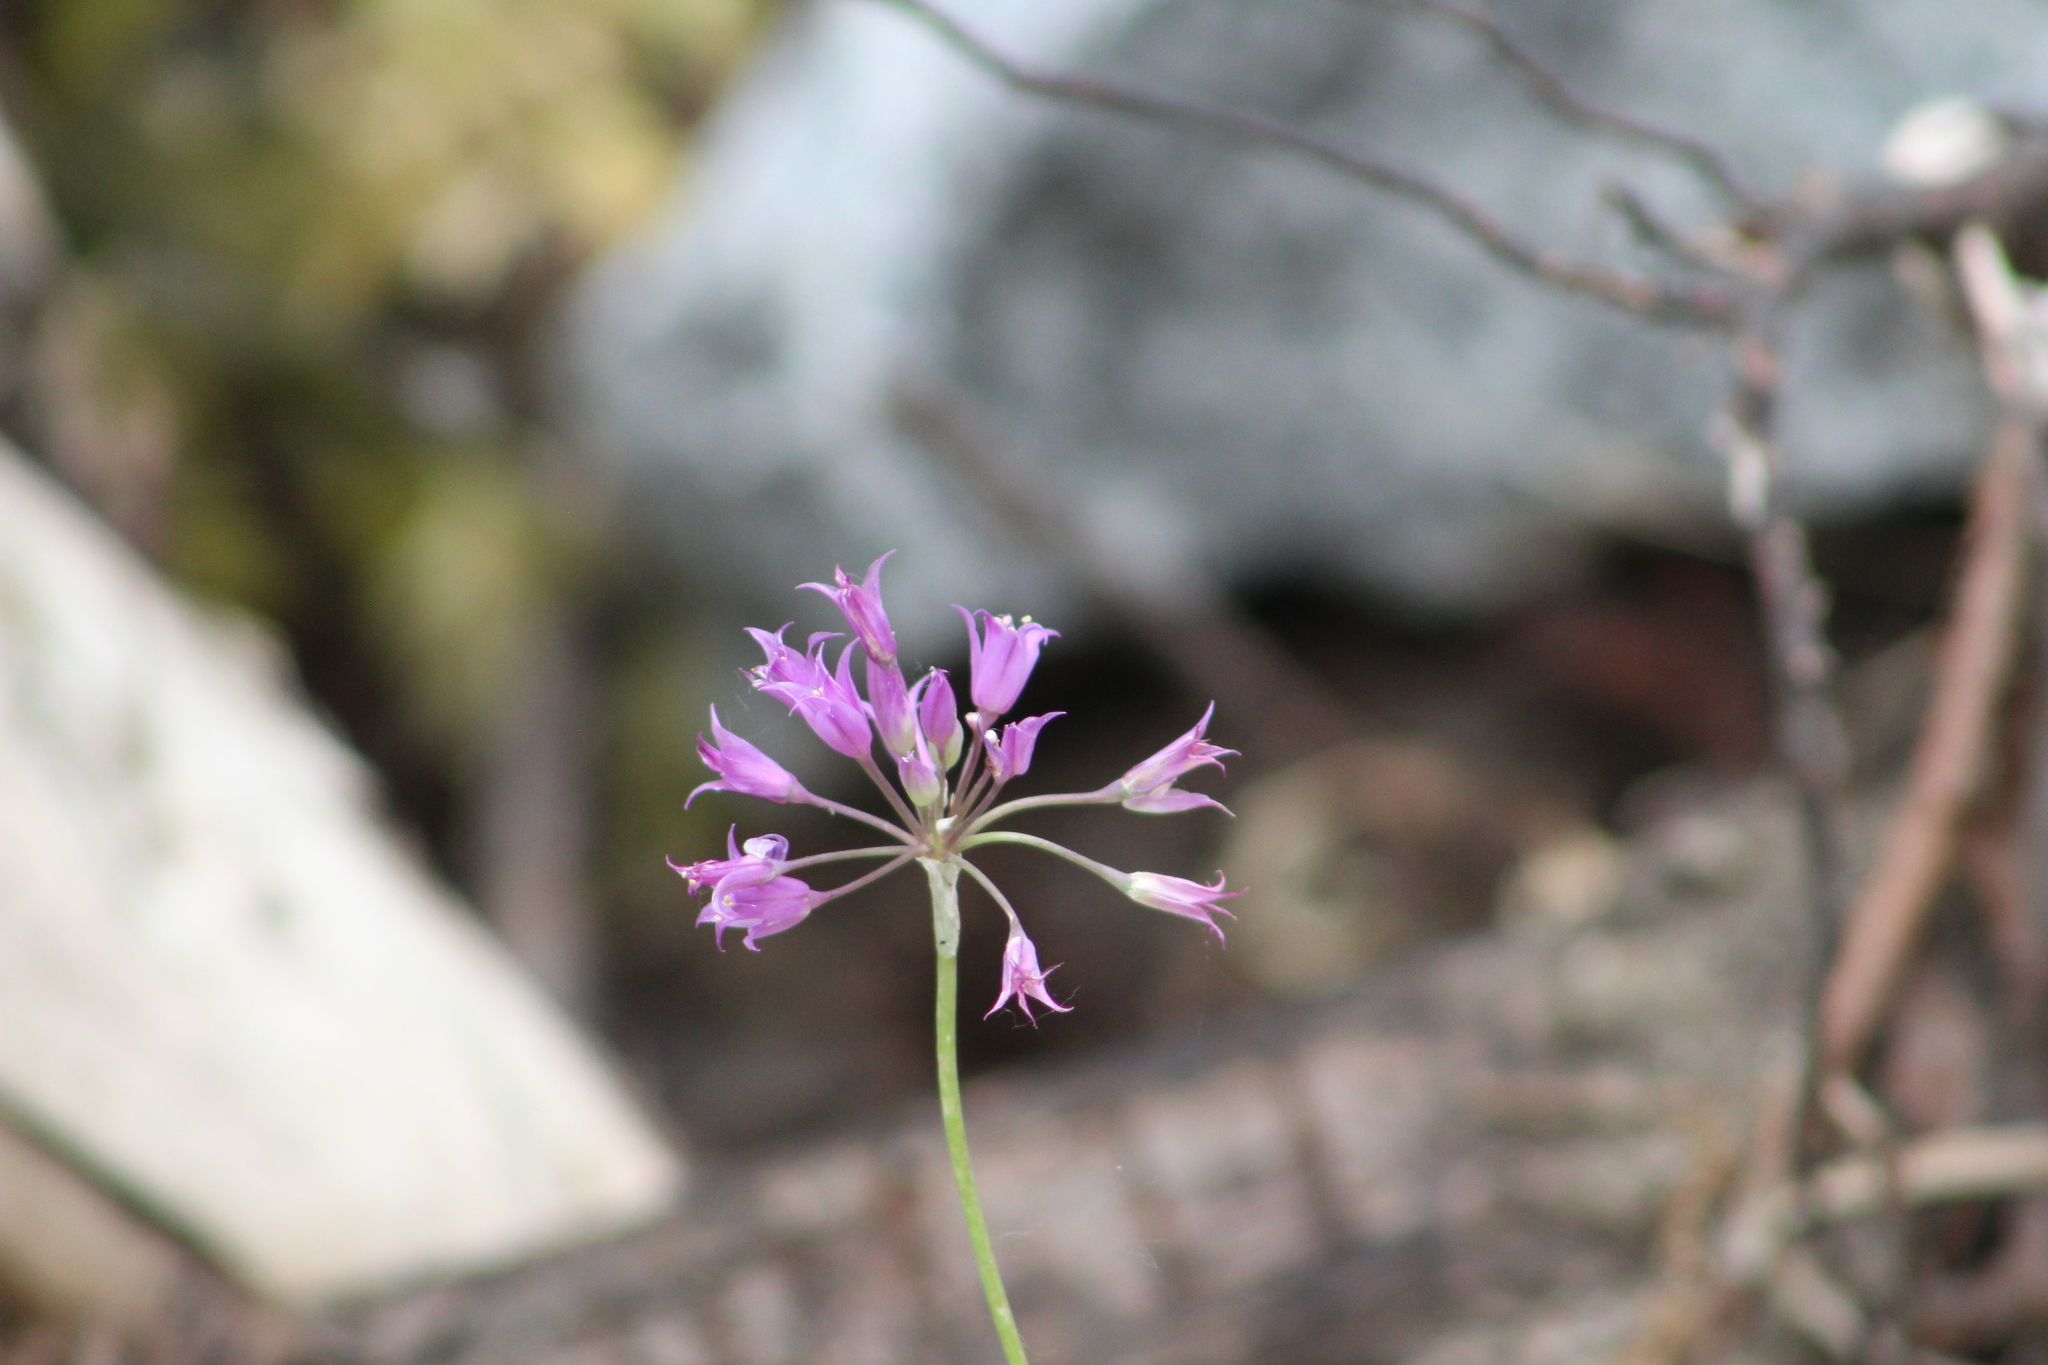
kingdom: Plantae
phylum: Tracheophyta
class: Liliopsida
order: Asparagales
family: Amaryllidaceae
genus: Allium
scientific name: Allium acuminatum
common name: Hooker's onion
